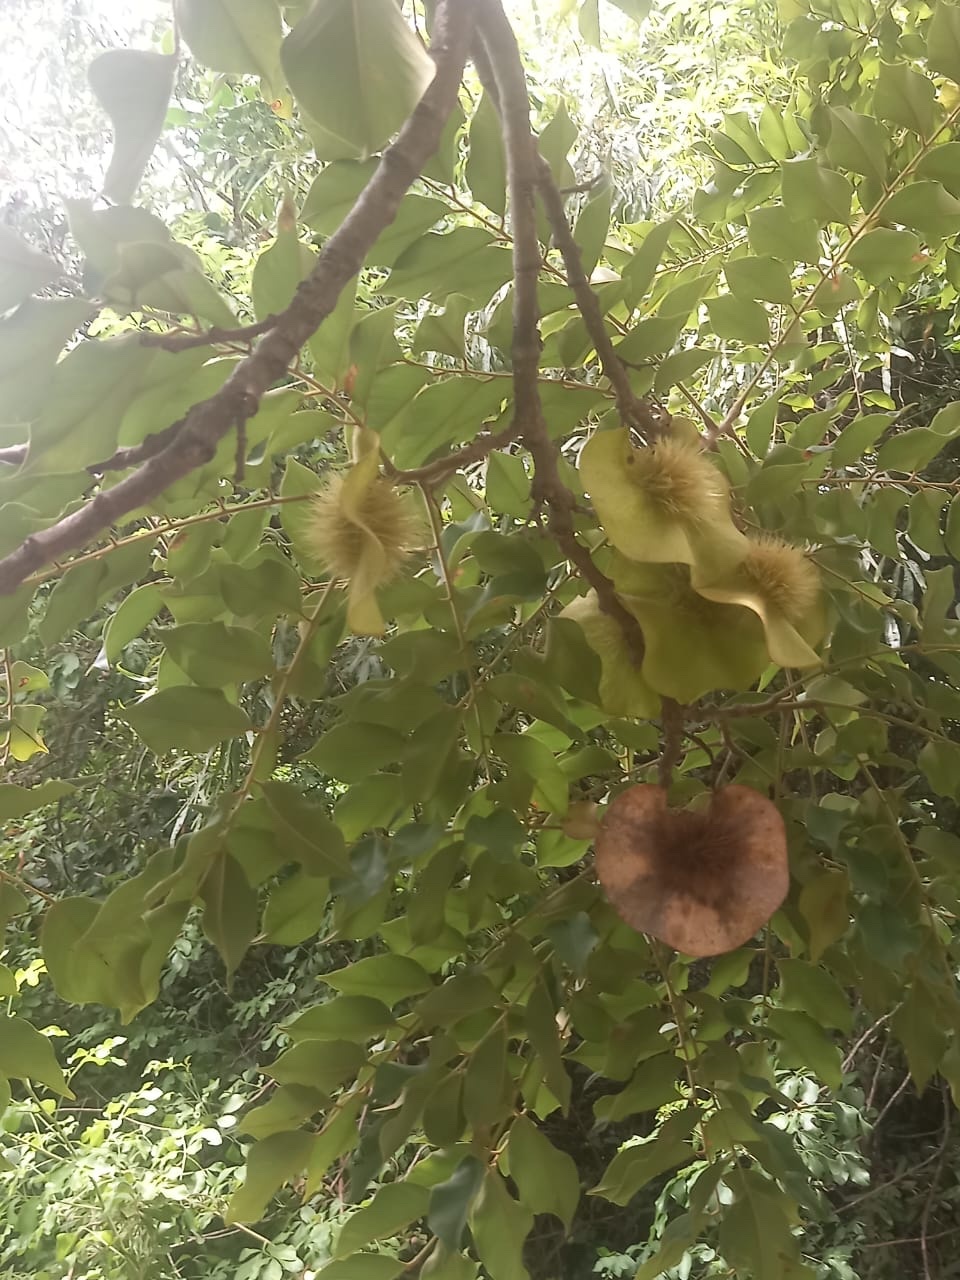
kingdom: Plantae
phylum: Tracheophyta
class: Magnoliopsida
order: Fabales
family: Fabaceae
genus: Pterocarpus
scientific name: Pterocarpus angolensis
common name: Bloodwood tree
